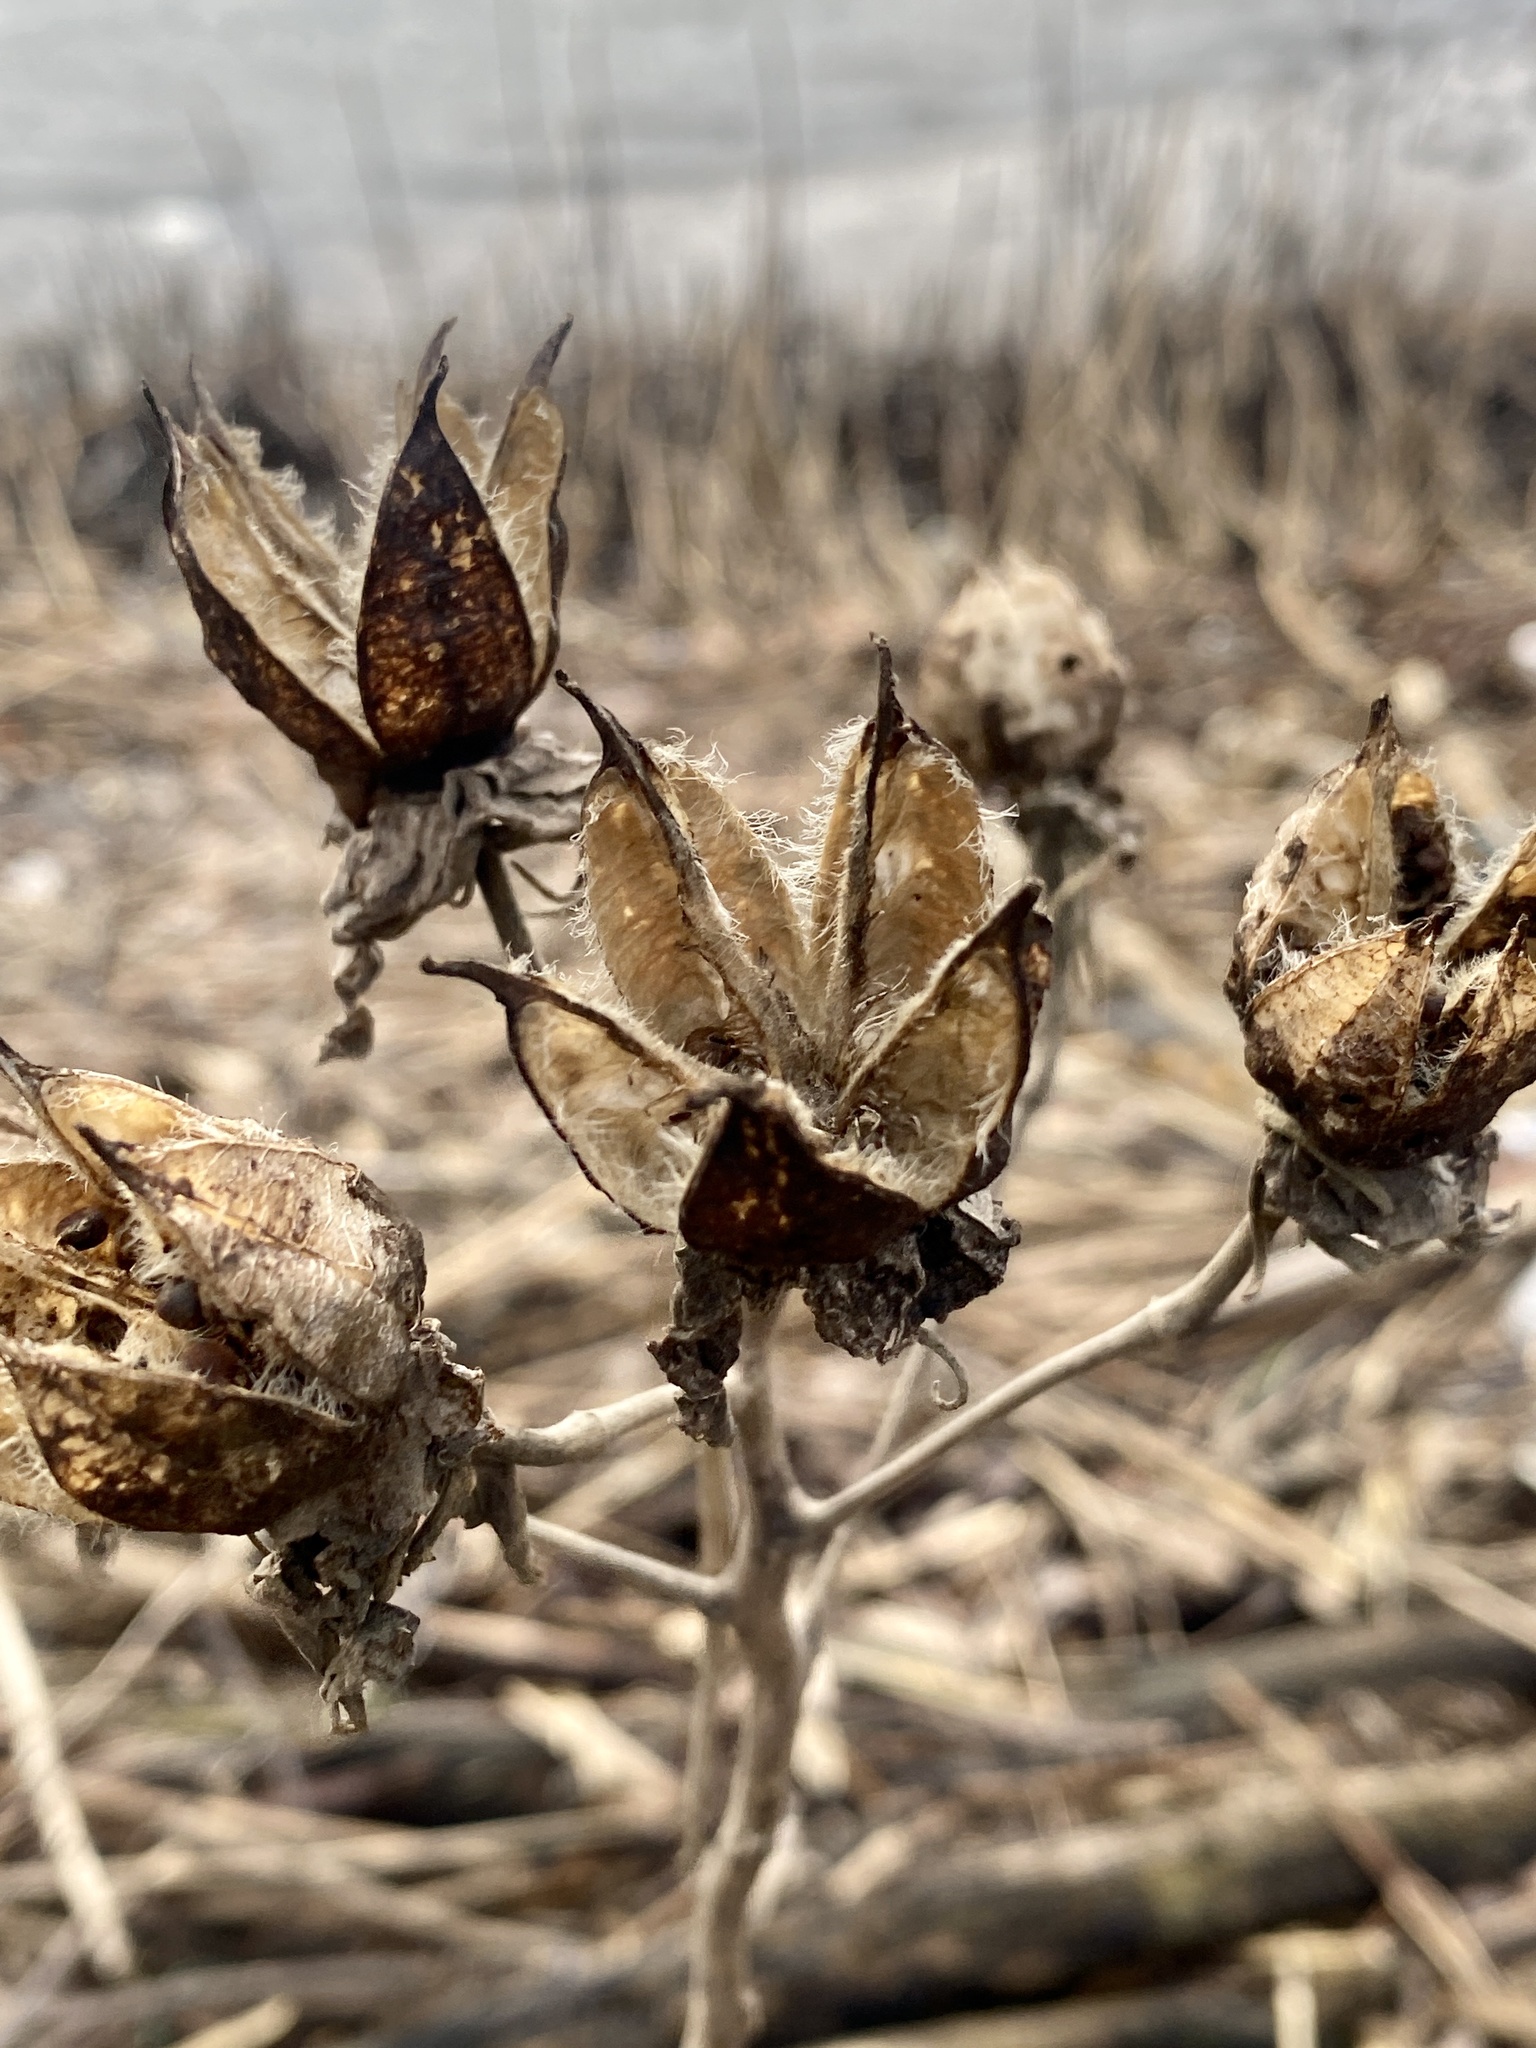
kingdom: Plantae
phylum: Tracheophyta
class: Magnoliopsida
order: Malvales
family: Malvaceae
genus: Hibiscus
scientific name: Hibiscus moscheutos
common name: Common rose-mallow
